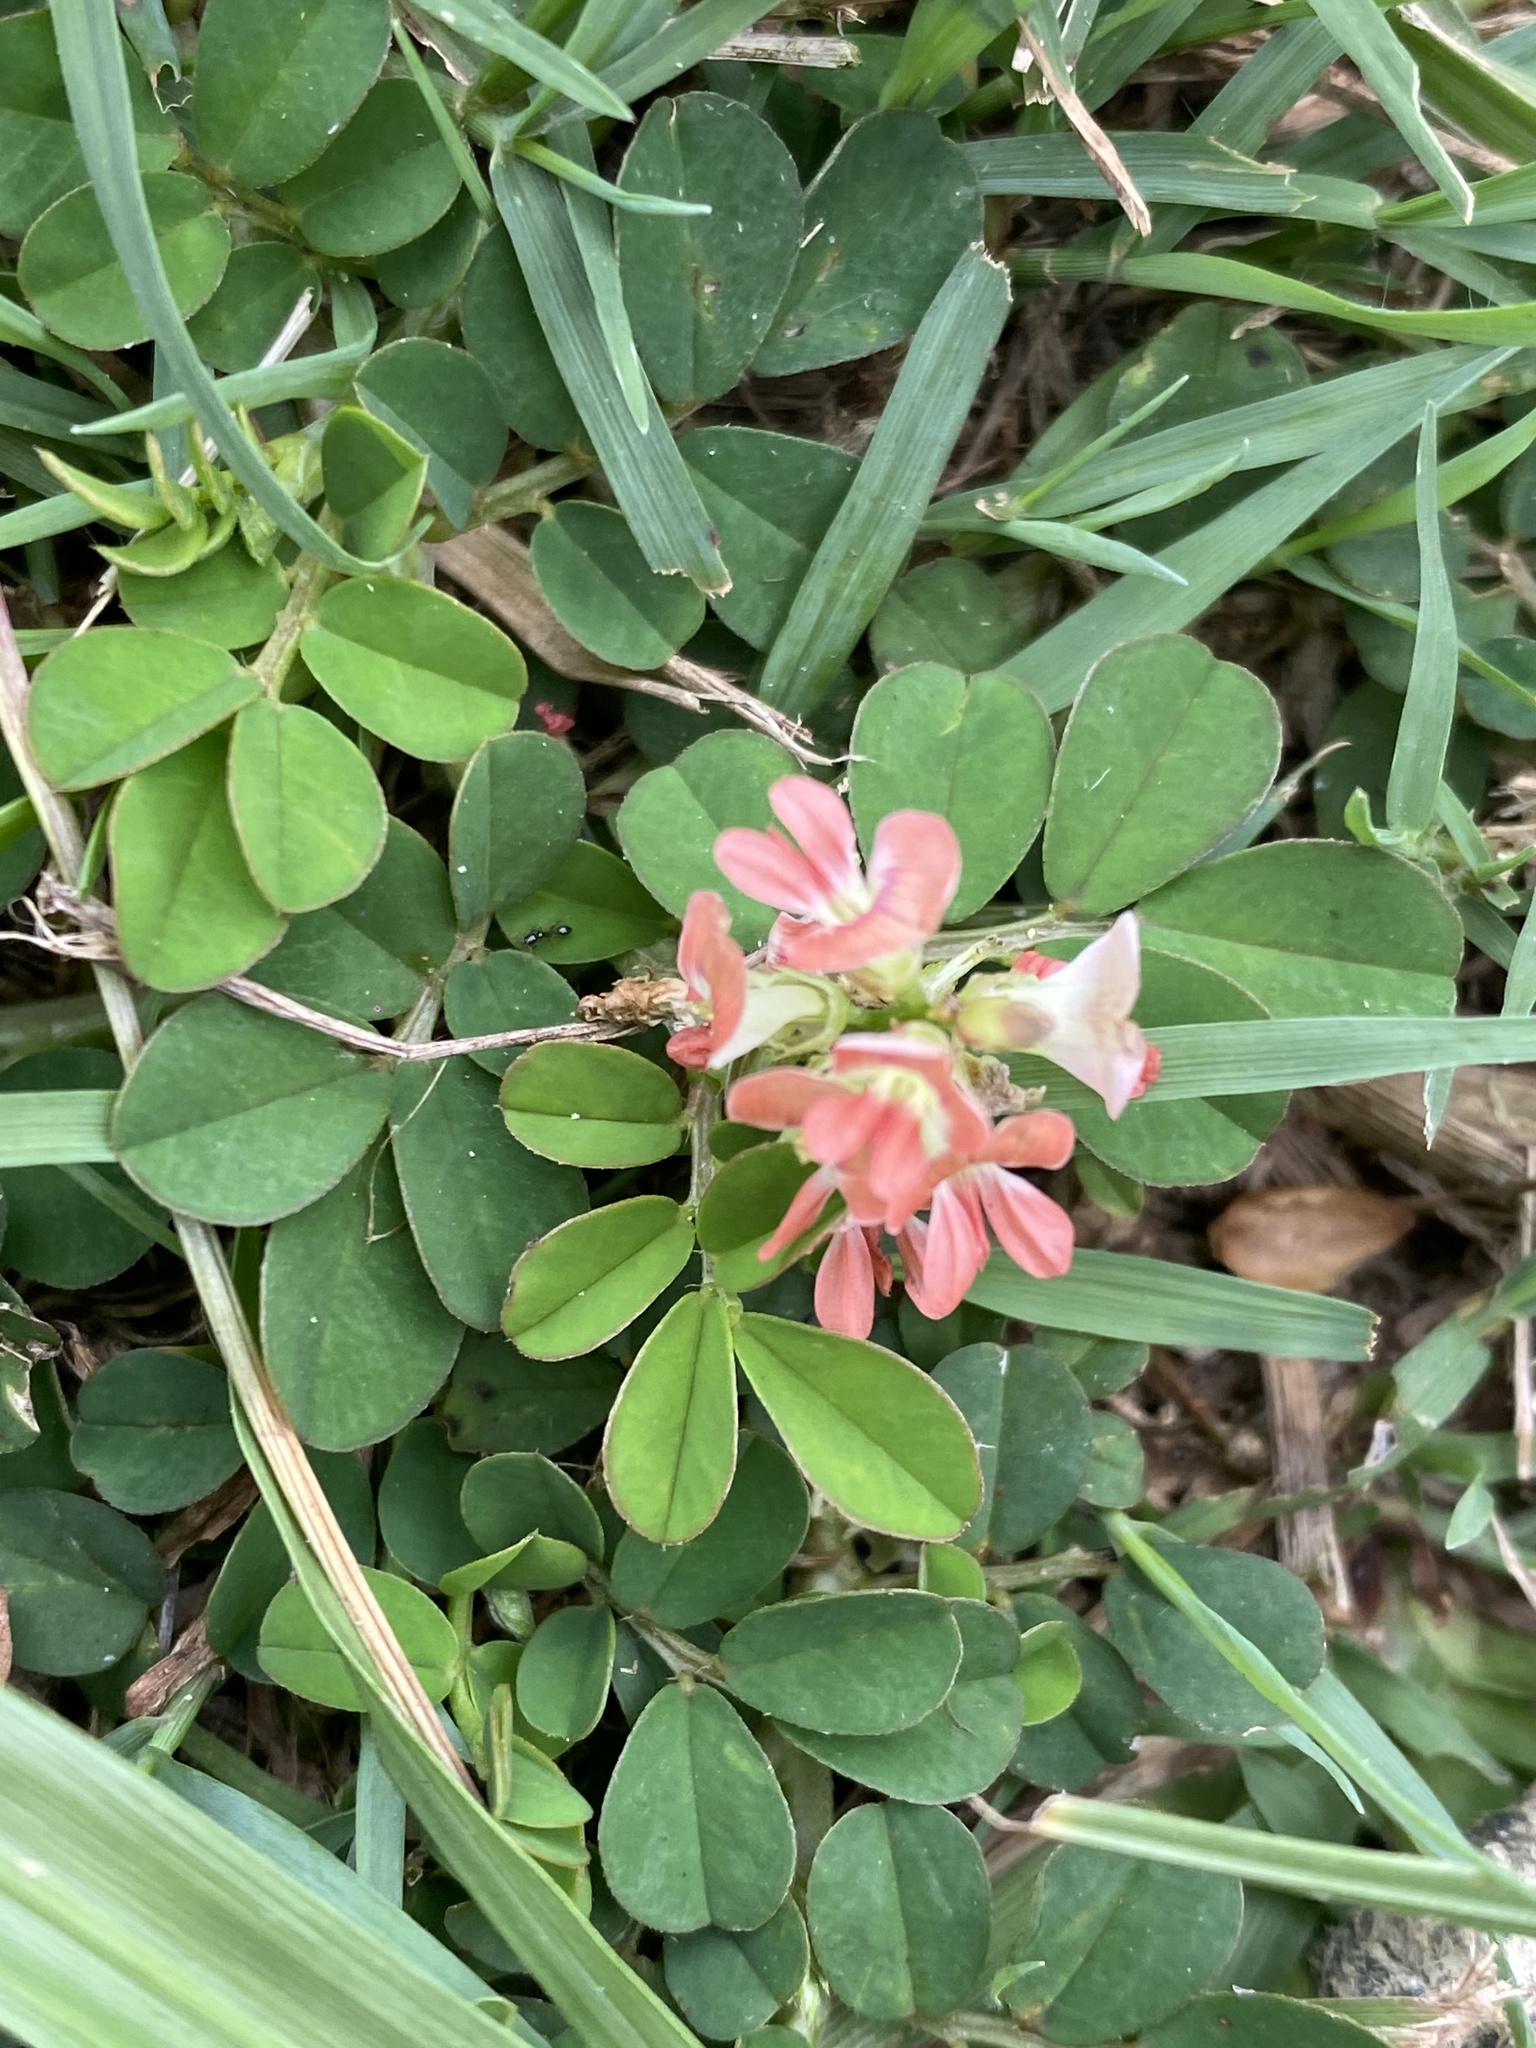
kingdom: Plantae
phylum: Tracheophyta
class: Magnoliopsida
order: Fabales
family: Fabaceae
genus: Indigofera
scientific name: Indigofera spicata
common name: Creeping indigo
